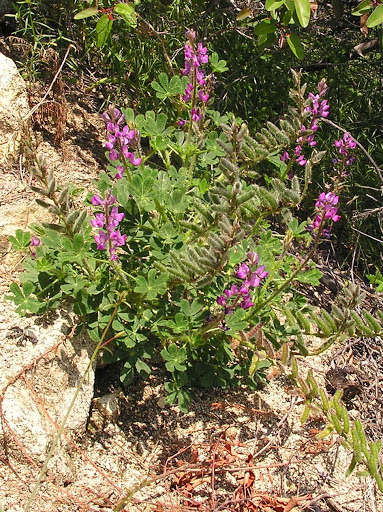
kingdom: Plantae
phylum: Tracheophyta
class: Magnoliopsida
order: Fabales
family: Fabaceae
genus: Lupinus
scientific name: Lupinus hirsutissimus
